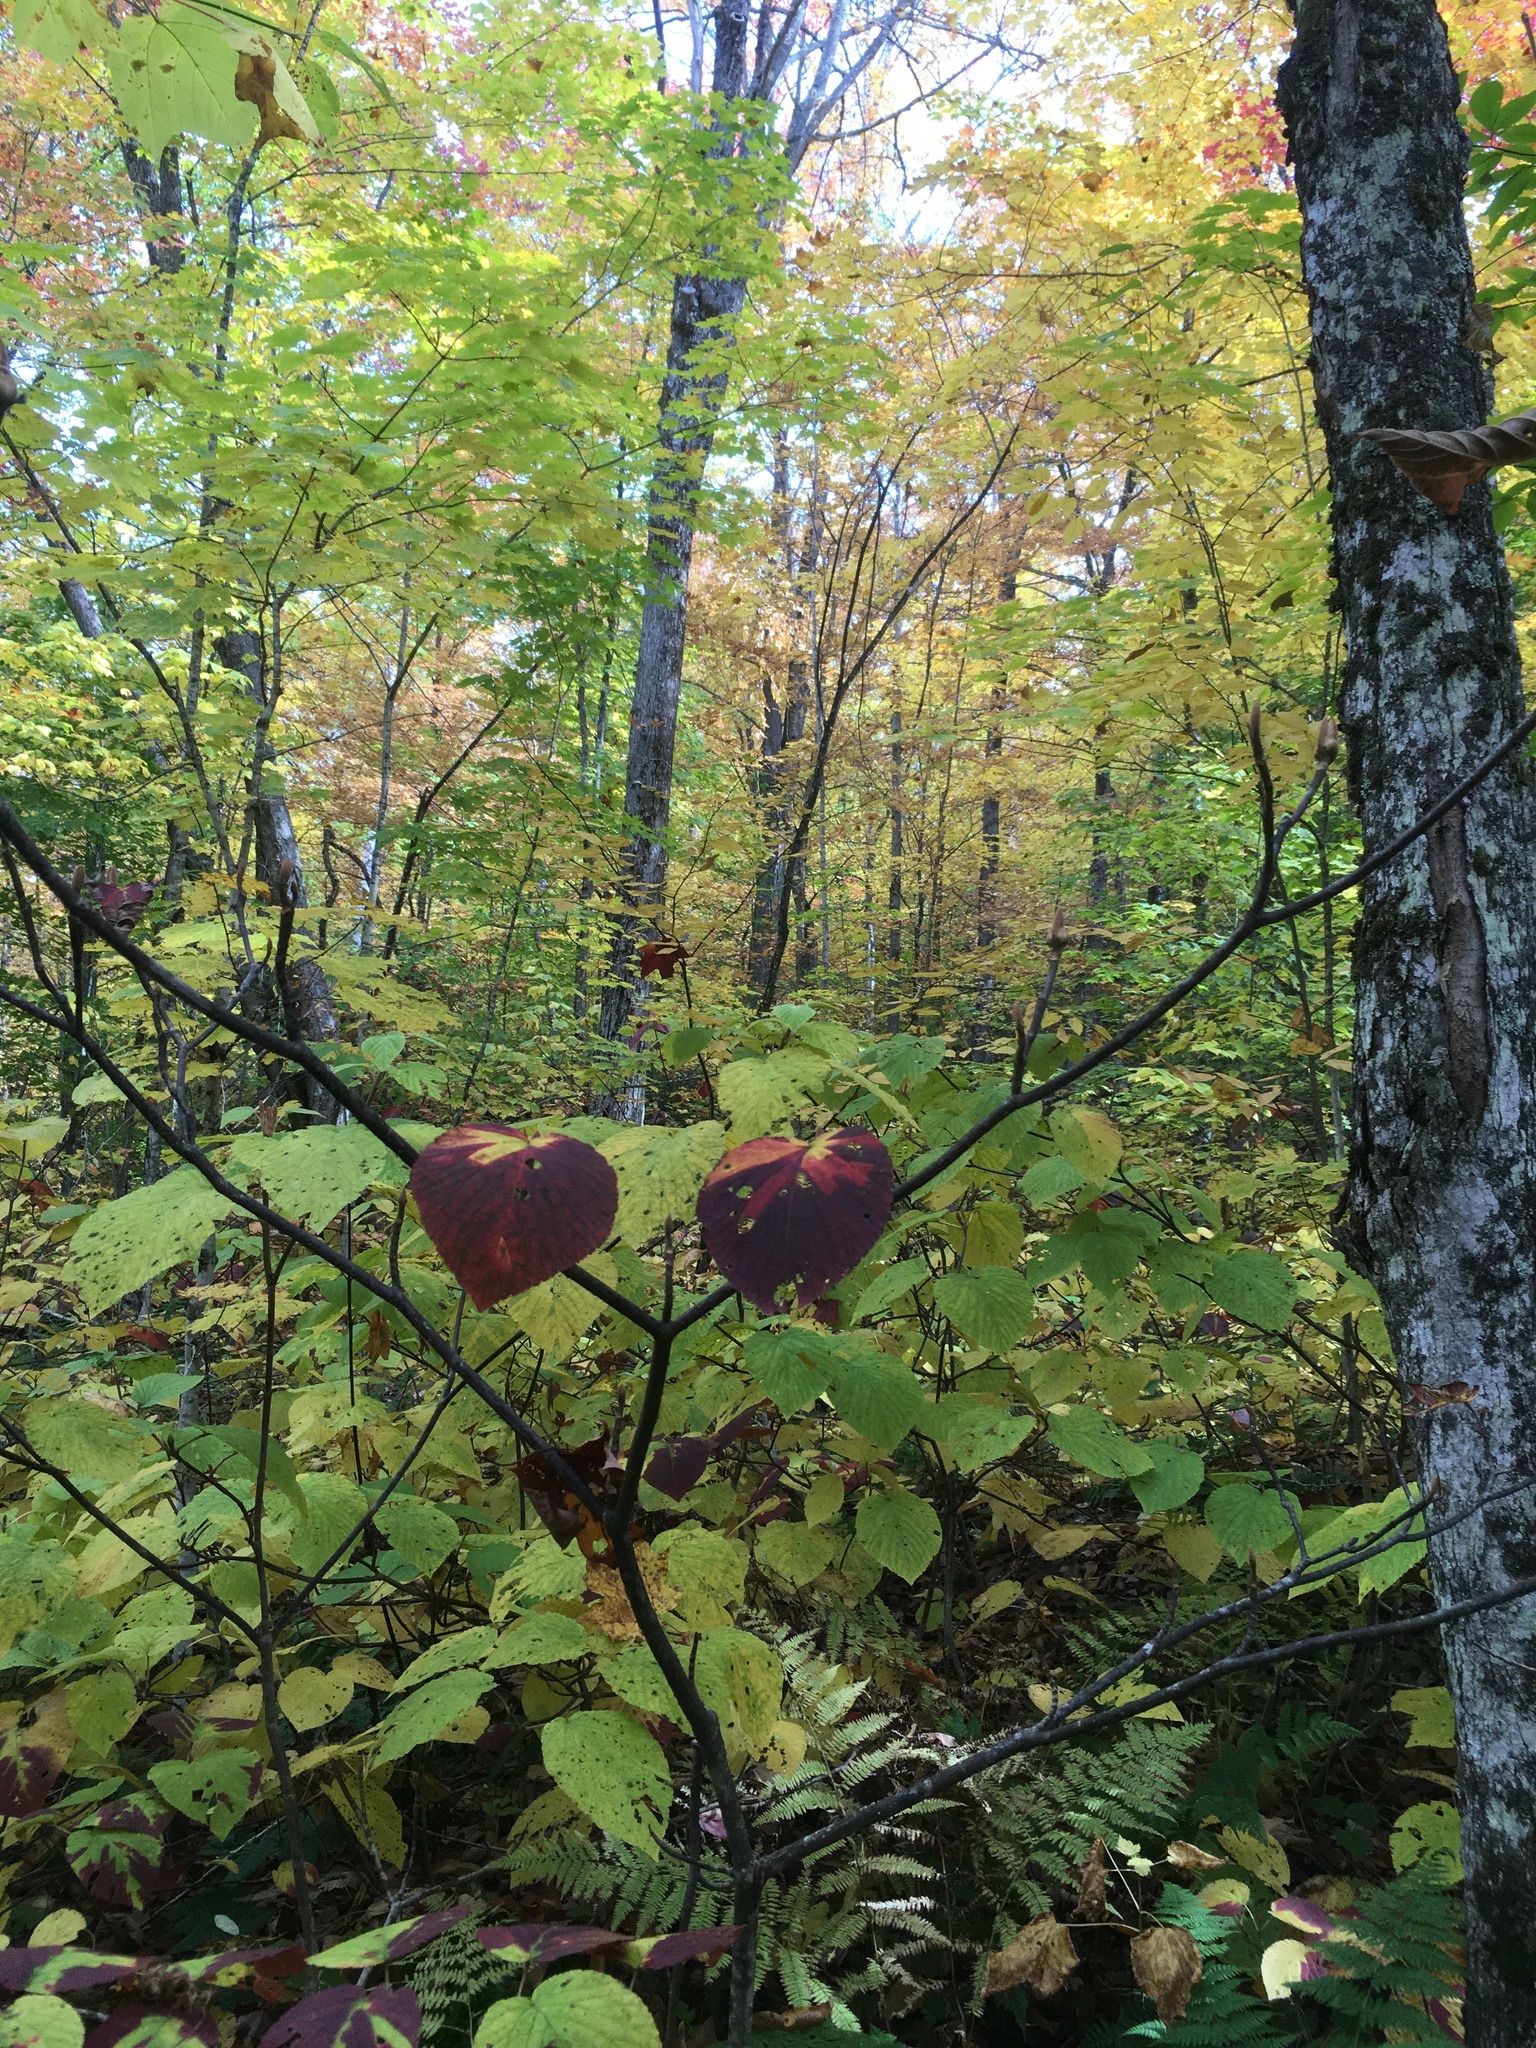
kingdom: Plantae
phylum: Tracheophyta
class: Magnoliopsida
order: Dipsacales
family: Viburnaceae
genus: Viburnum
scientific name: Viburnum lantanoides
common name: Hobblebush
